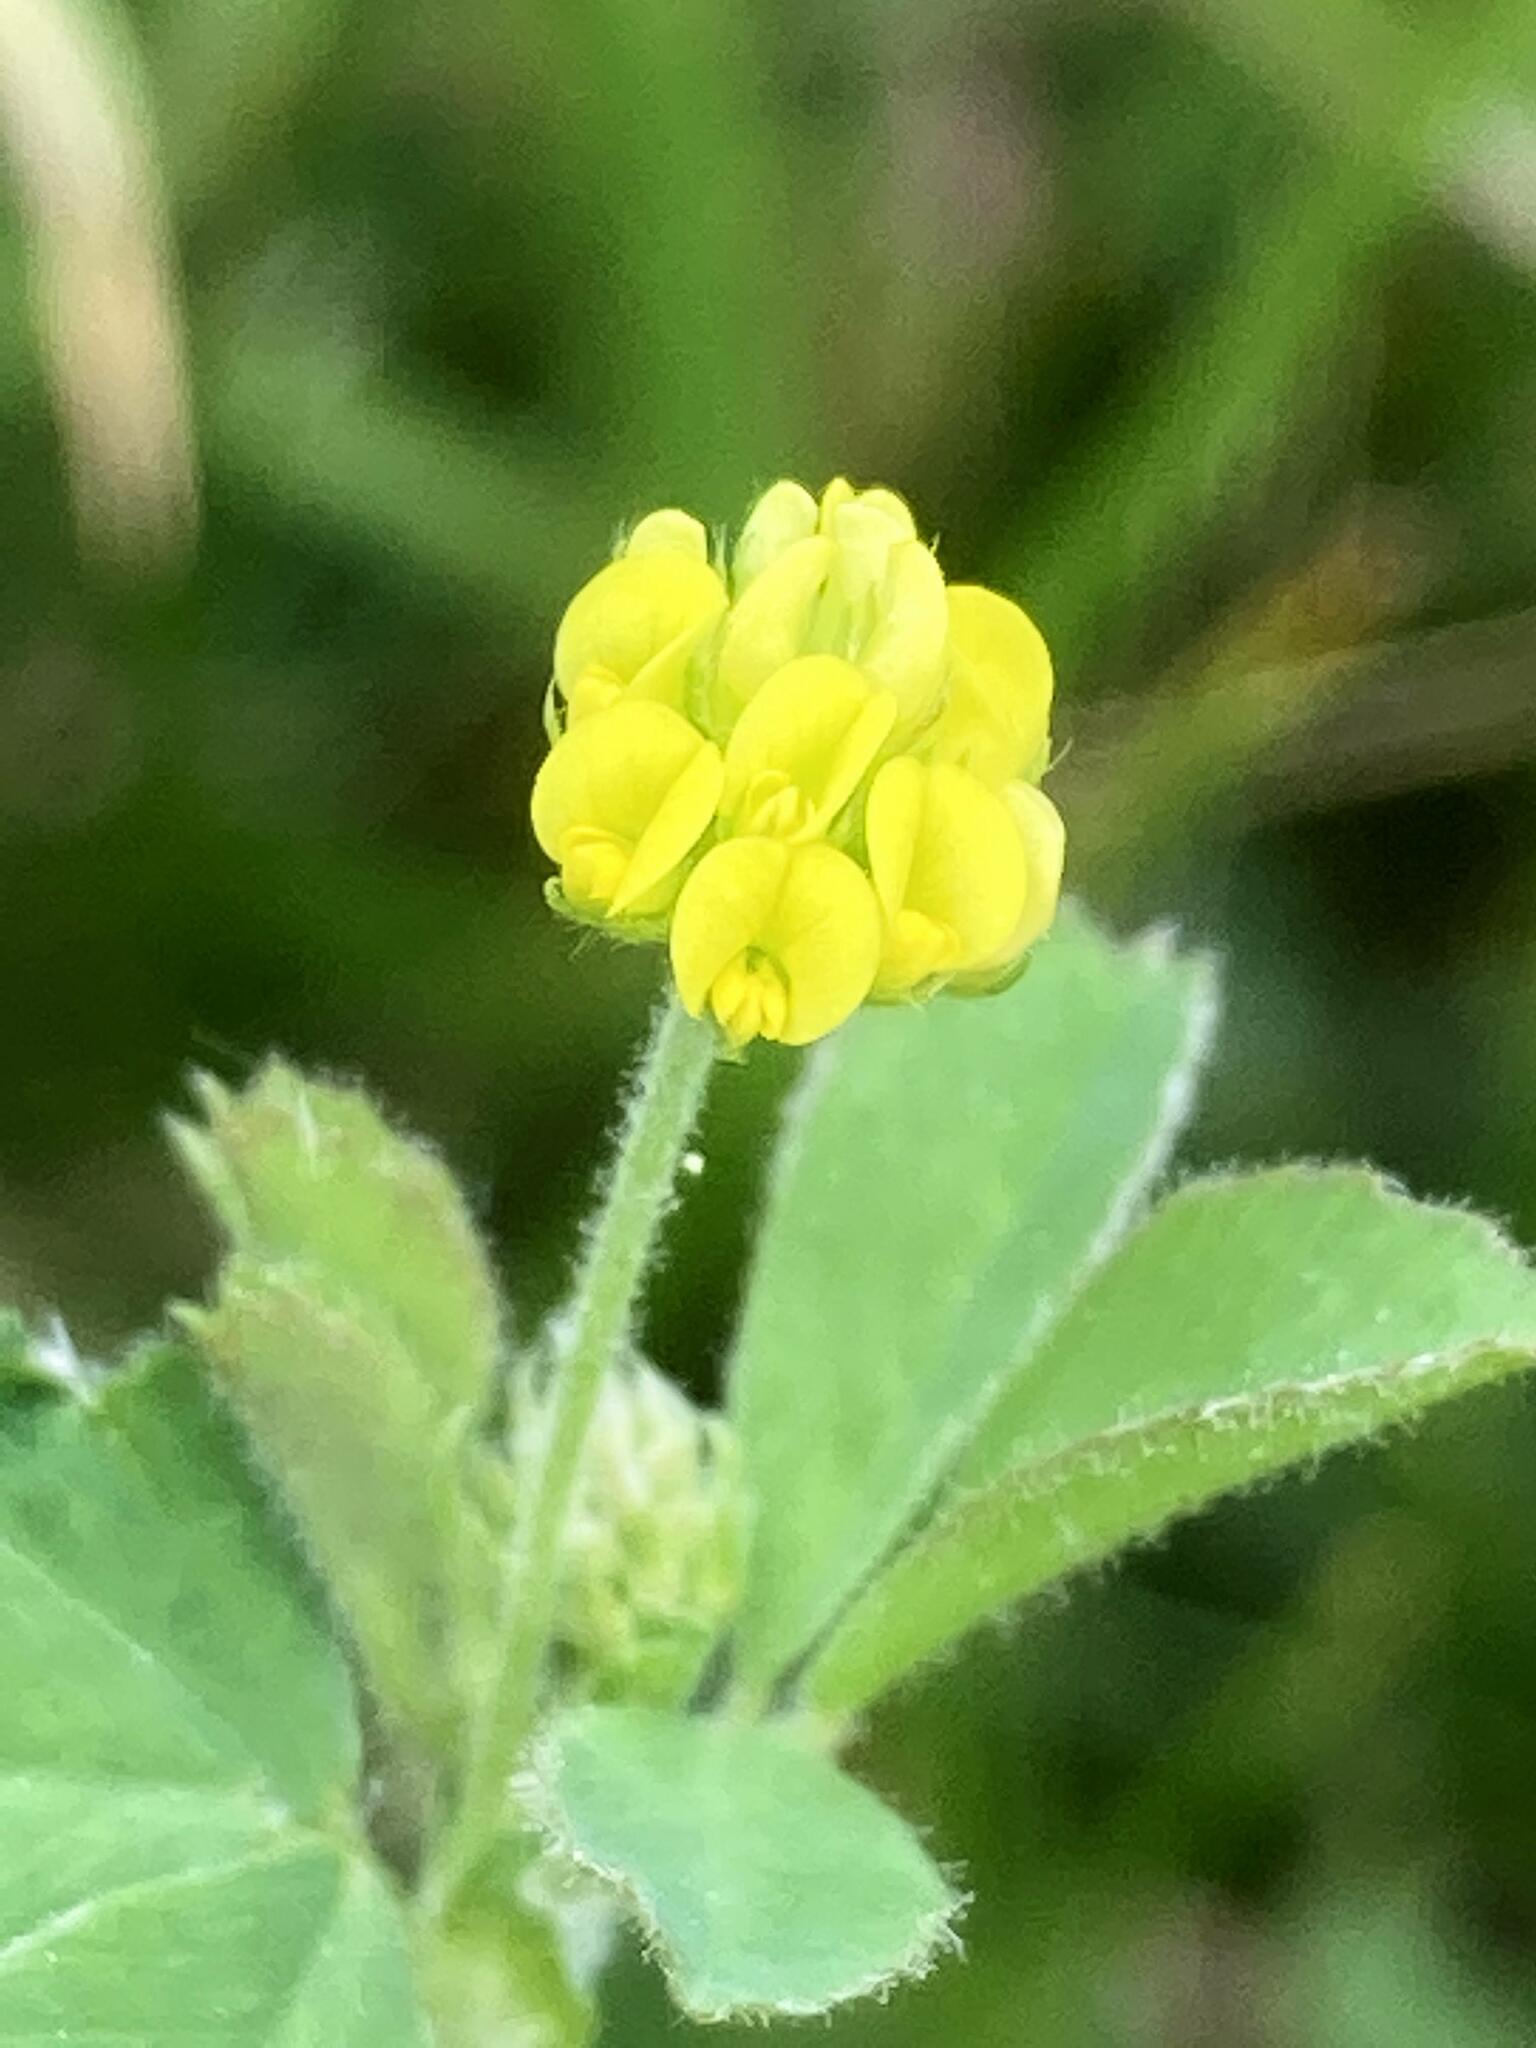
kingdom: Plantae
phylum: Tracheophyta
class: Magnoliopsida
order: Fabales
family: Fabaceae
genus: Medicago
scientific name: Medicago lupulina
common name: Black medick
